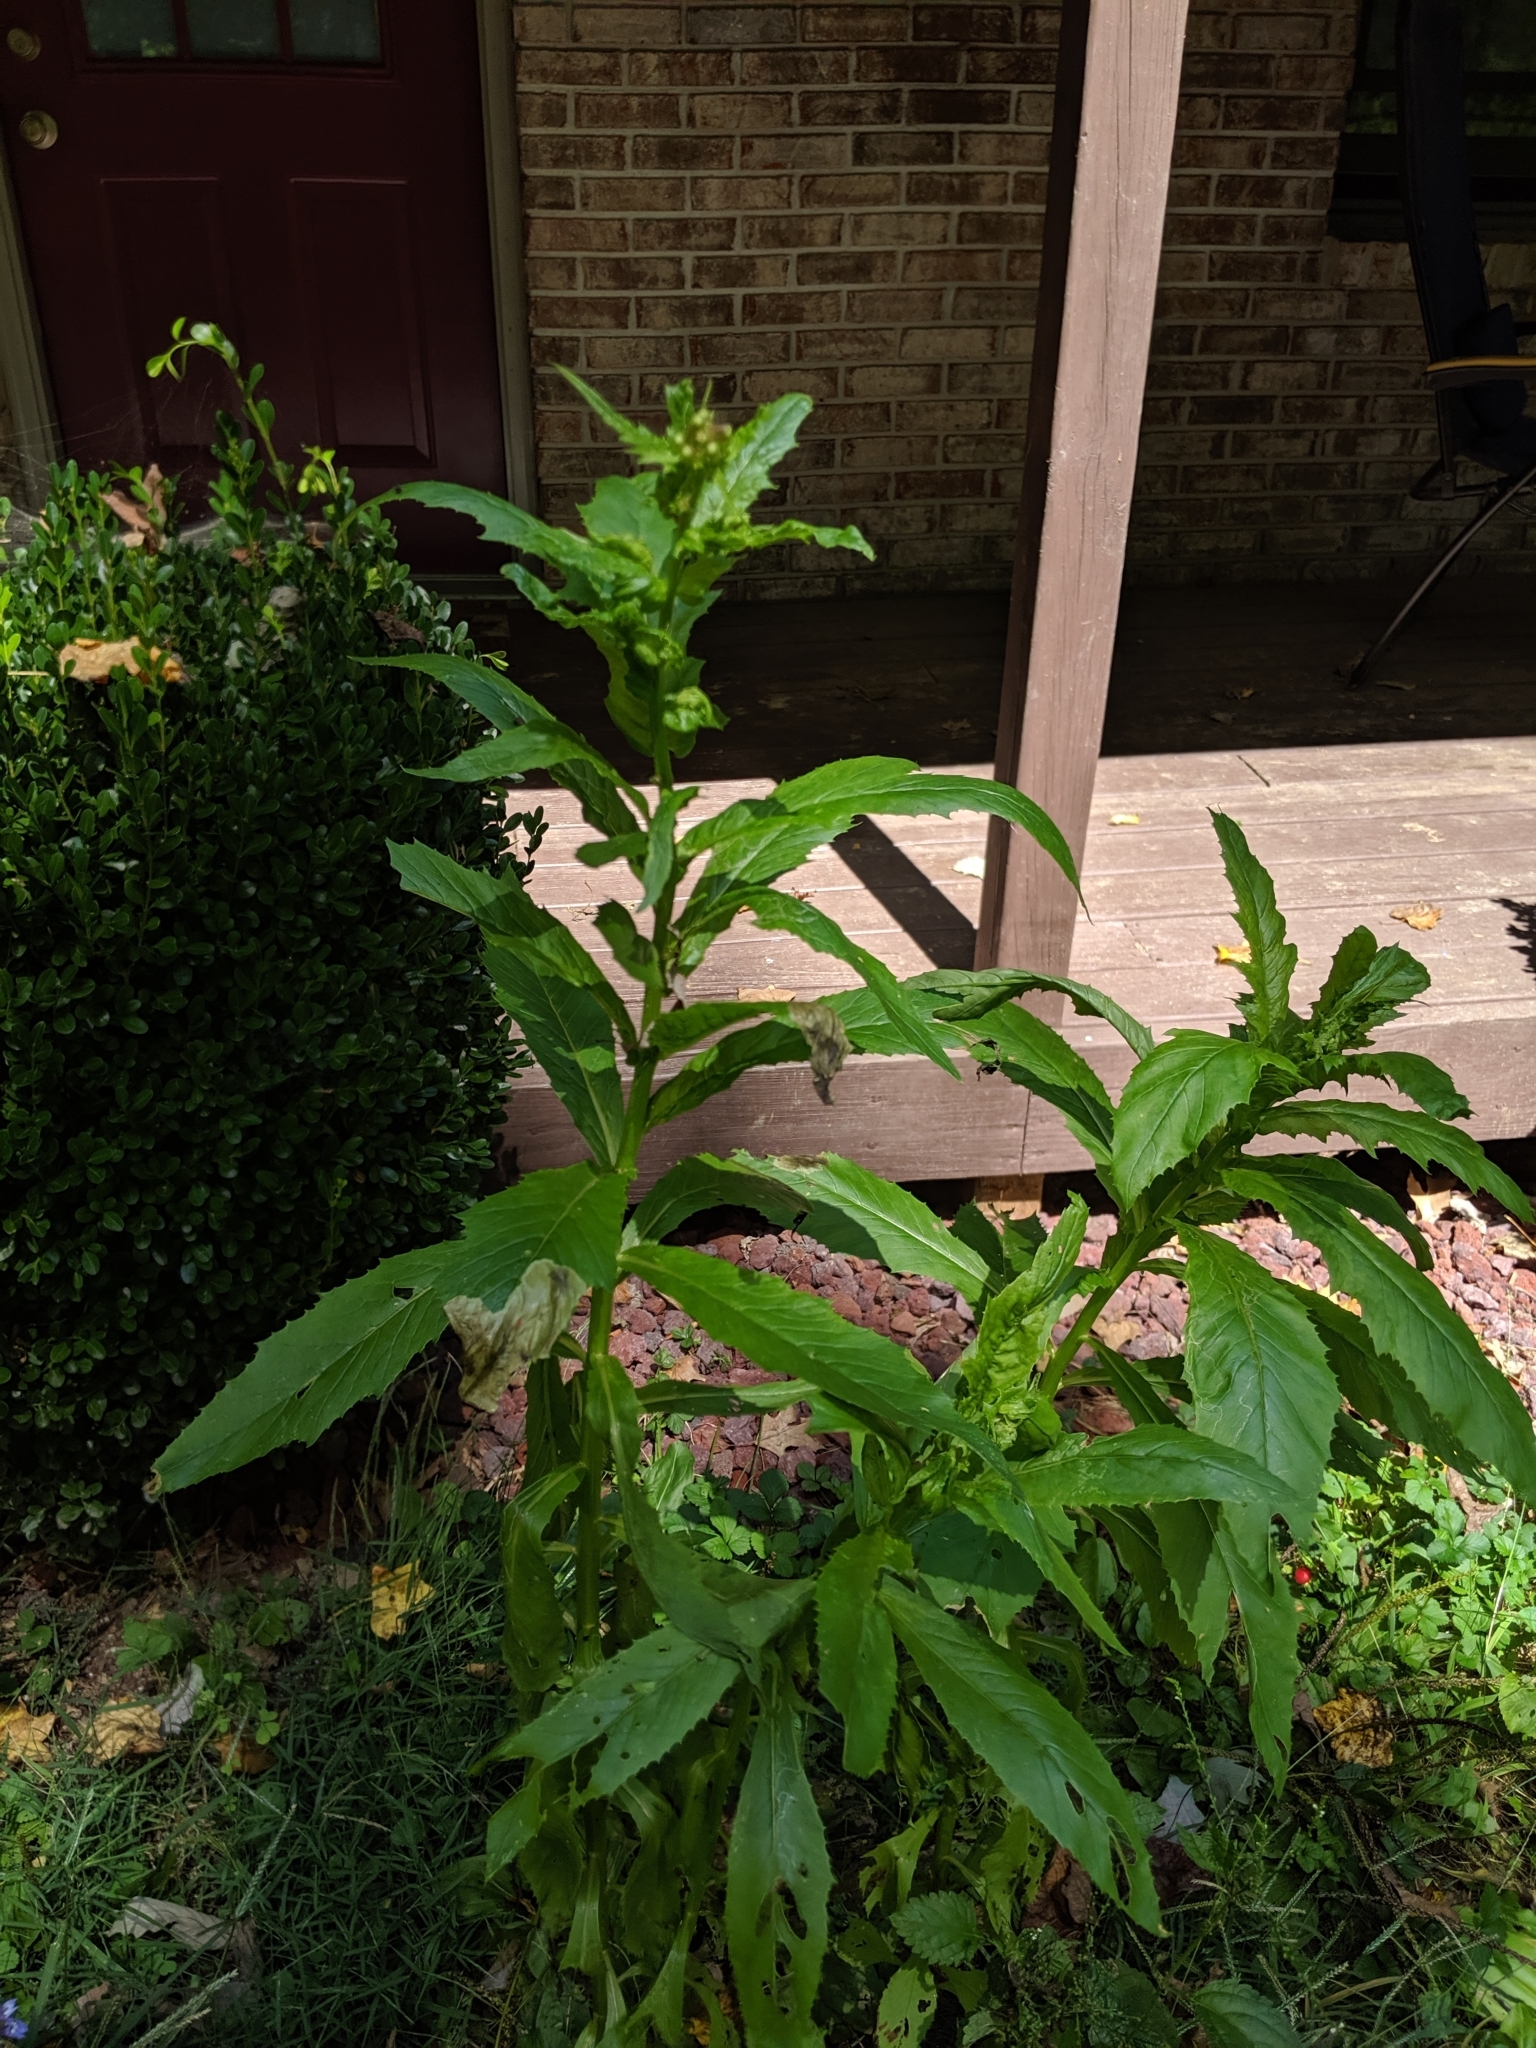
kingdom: Plantae
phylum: Tracheophyta
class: Magnoliopsida
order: Asterales
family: Asteraceae
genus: Erechtites
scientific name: Erechtites hieraciifolius
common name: American burnweed
